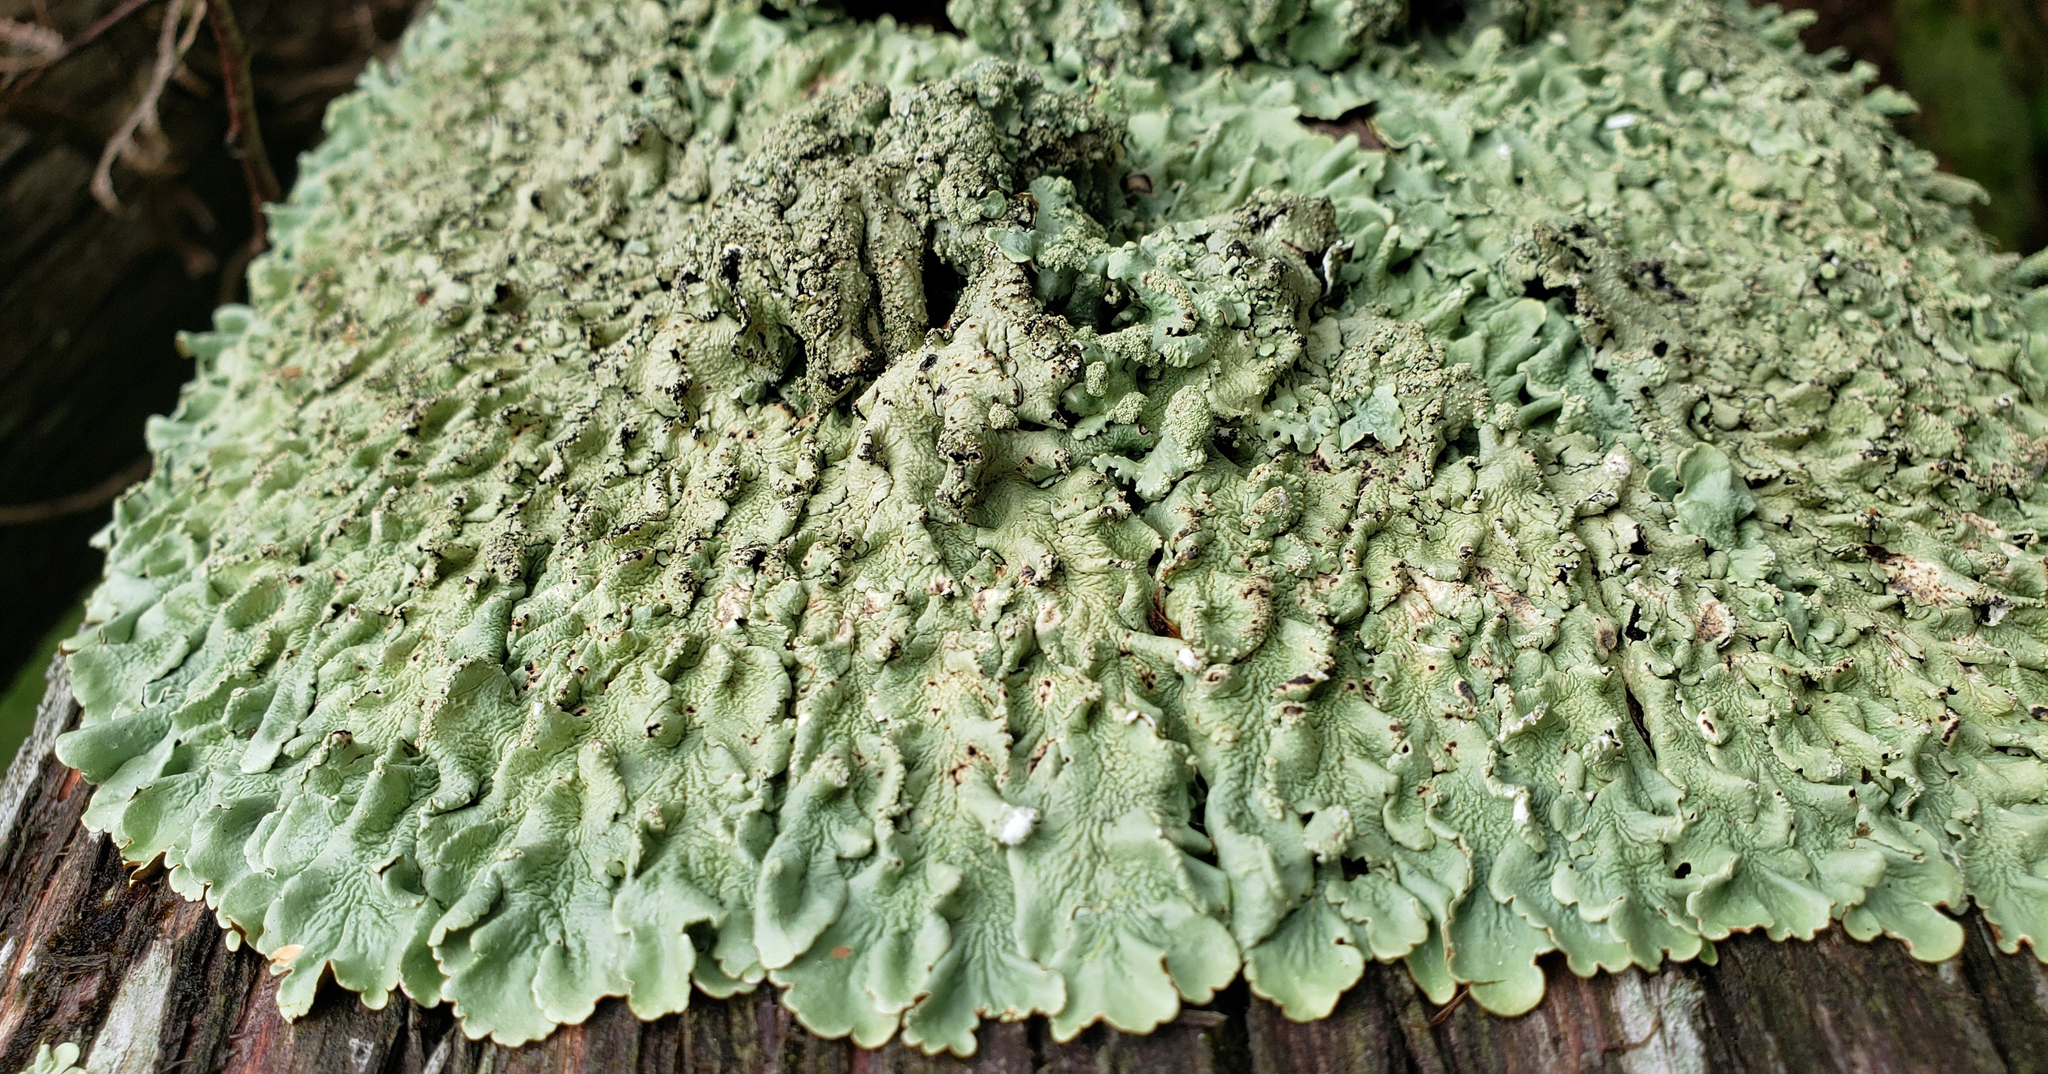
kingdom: Fungi
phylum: Ascomycota
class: Lecanoromycetes
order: Lecanorales
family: Parmeliaceae
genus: Flavoparmelia
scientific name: Flavoparmelia caperata
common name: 40-mile per hour lichen
